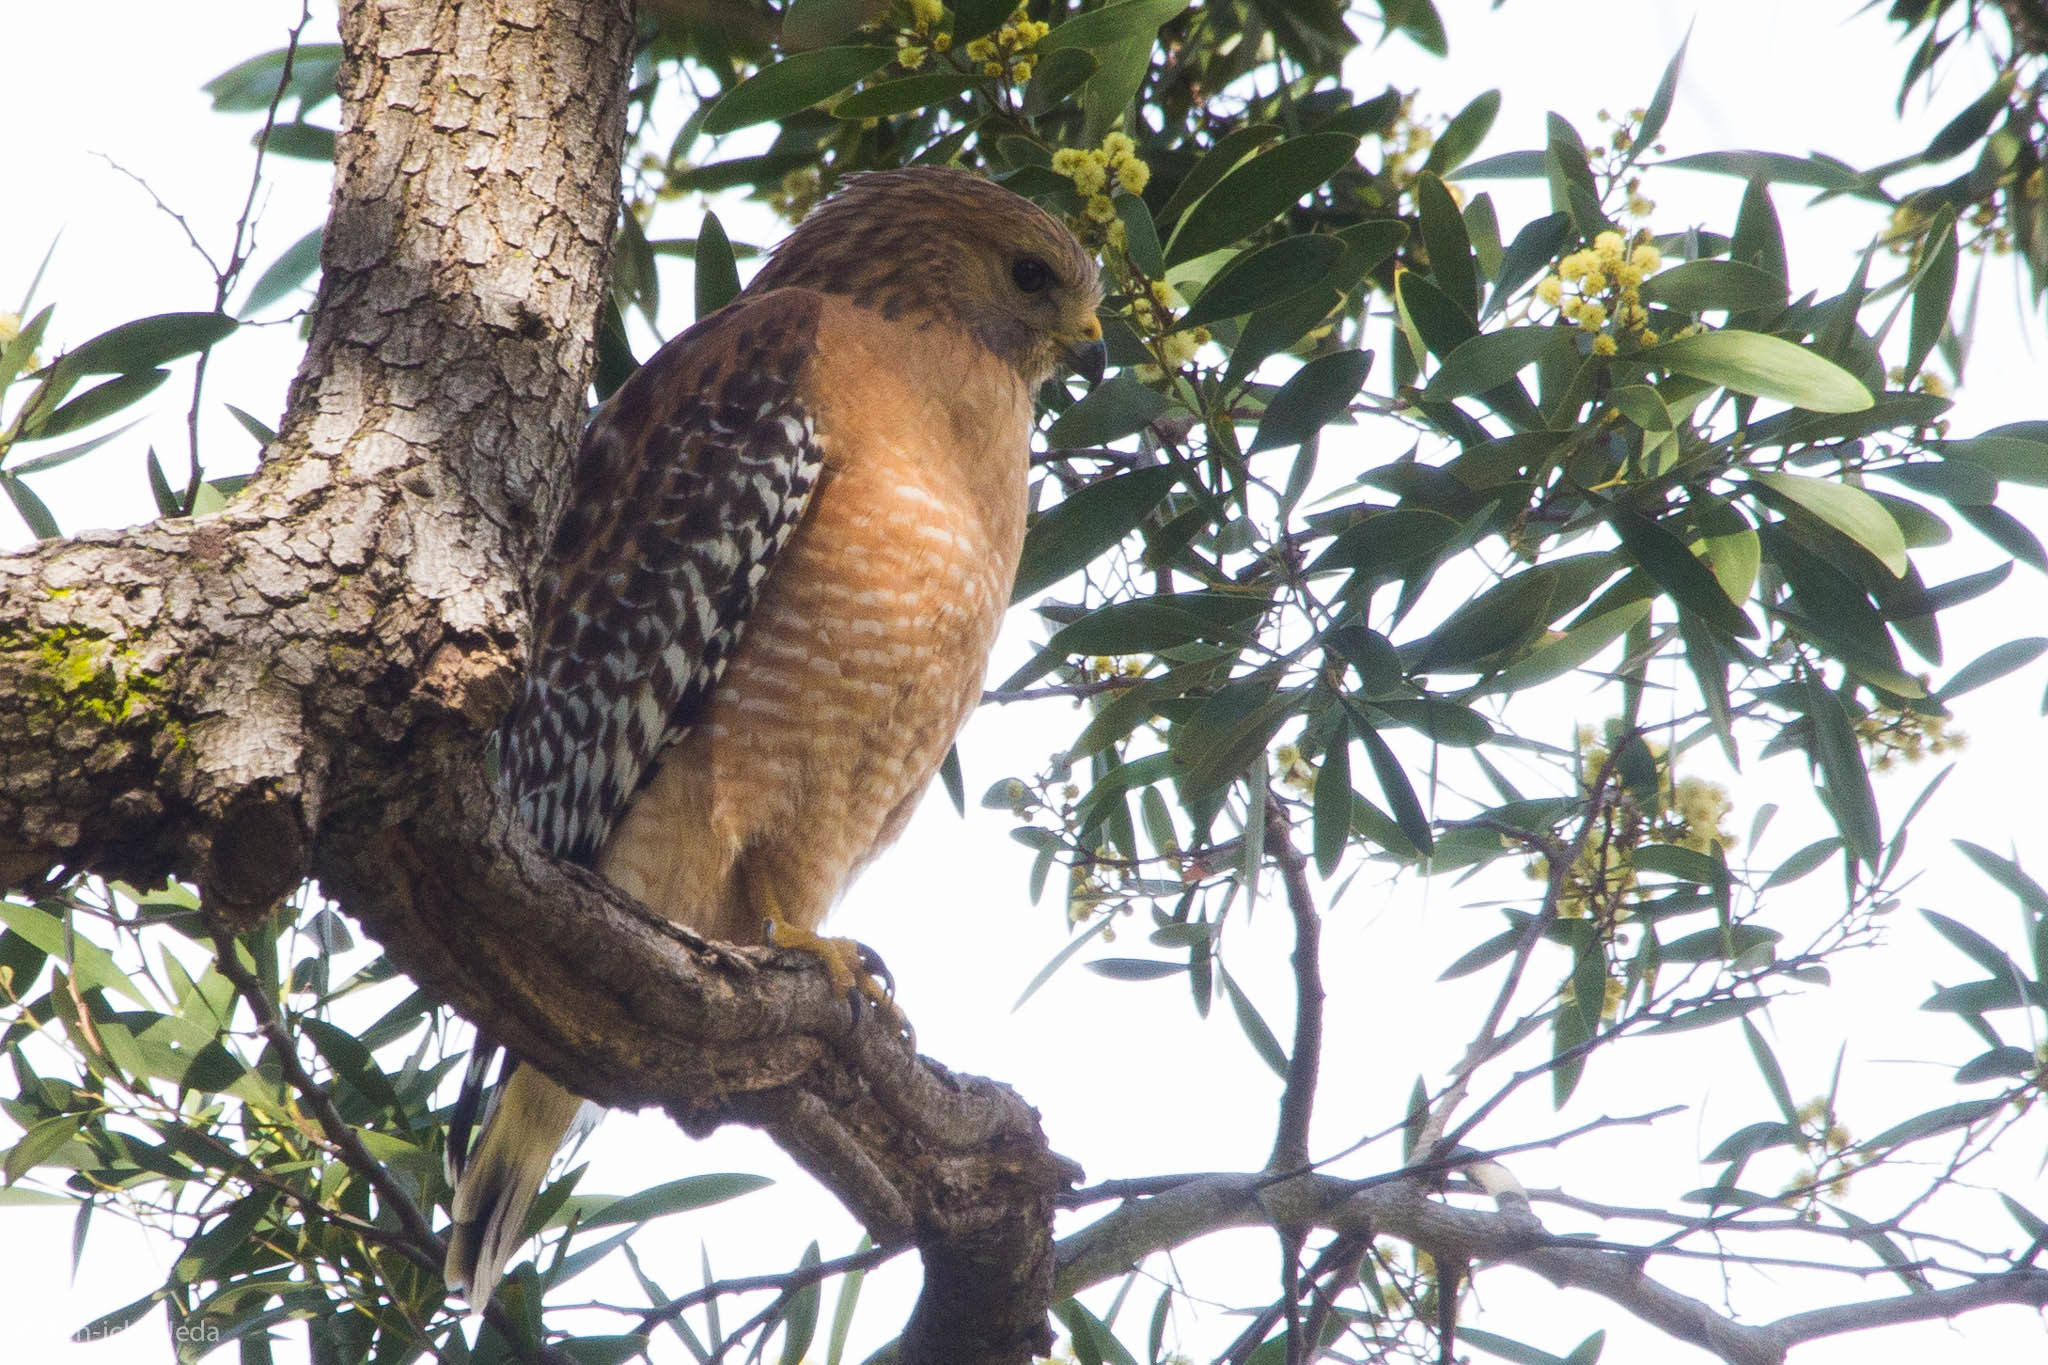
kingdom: Animalia
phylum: Chordata
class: Aves
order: Accipitriformes
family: Accipitridae
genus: Buteo
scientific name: Buteo lineatus
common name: Red-shouldered hawk
